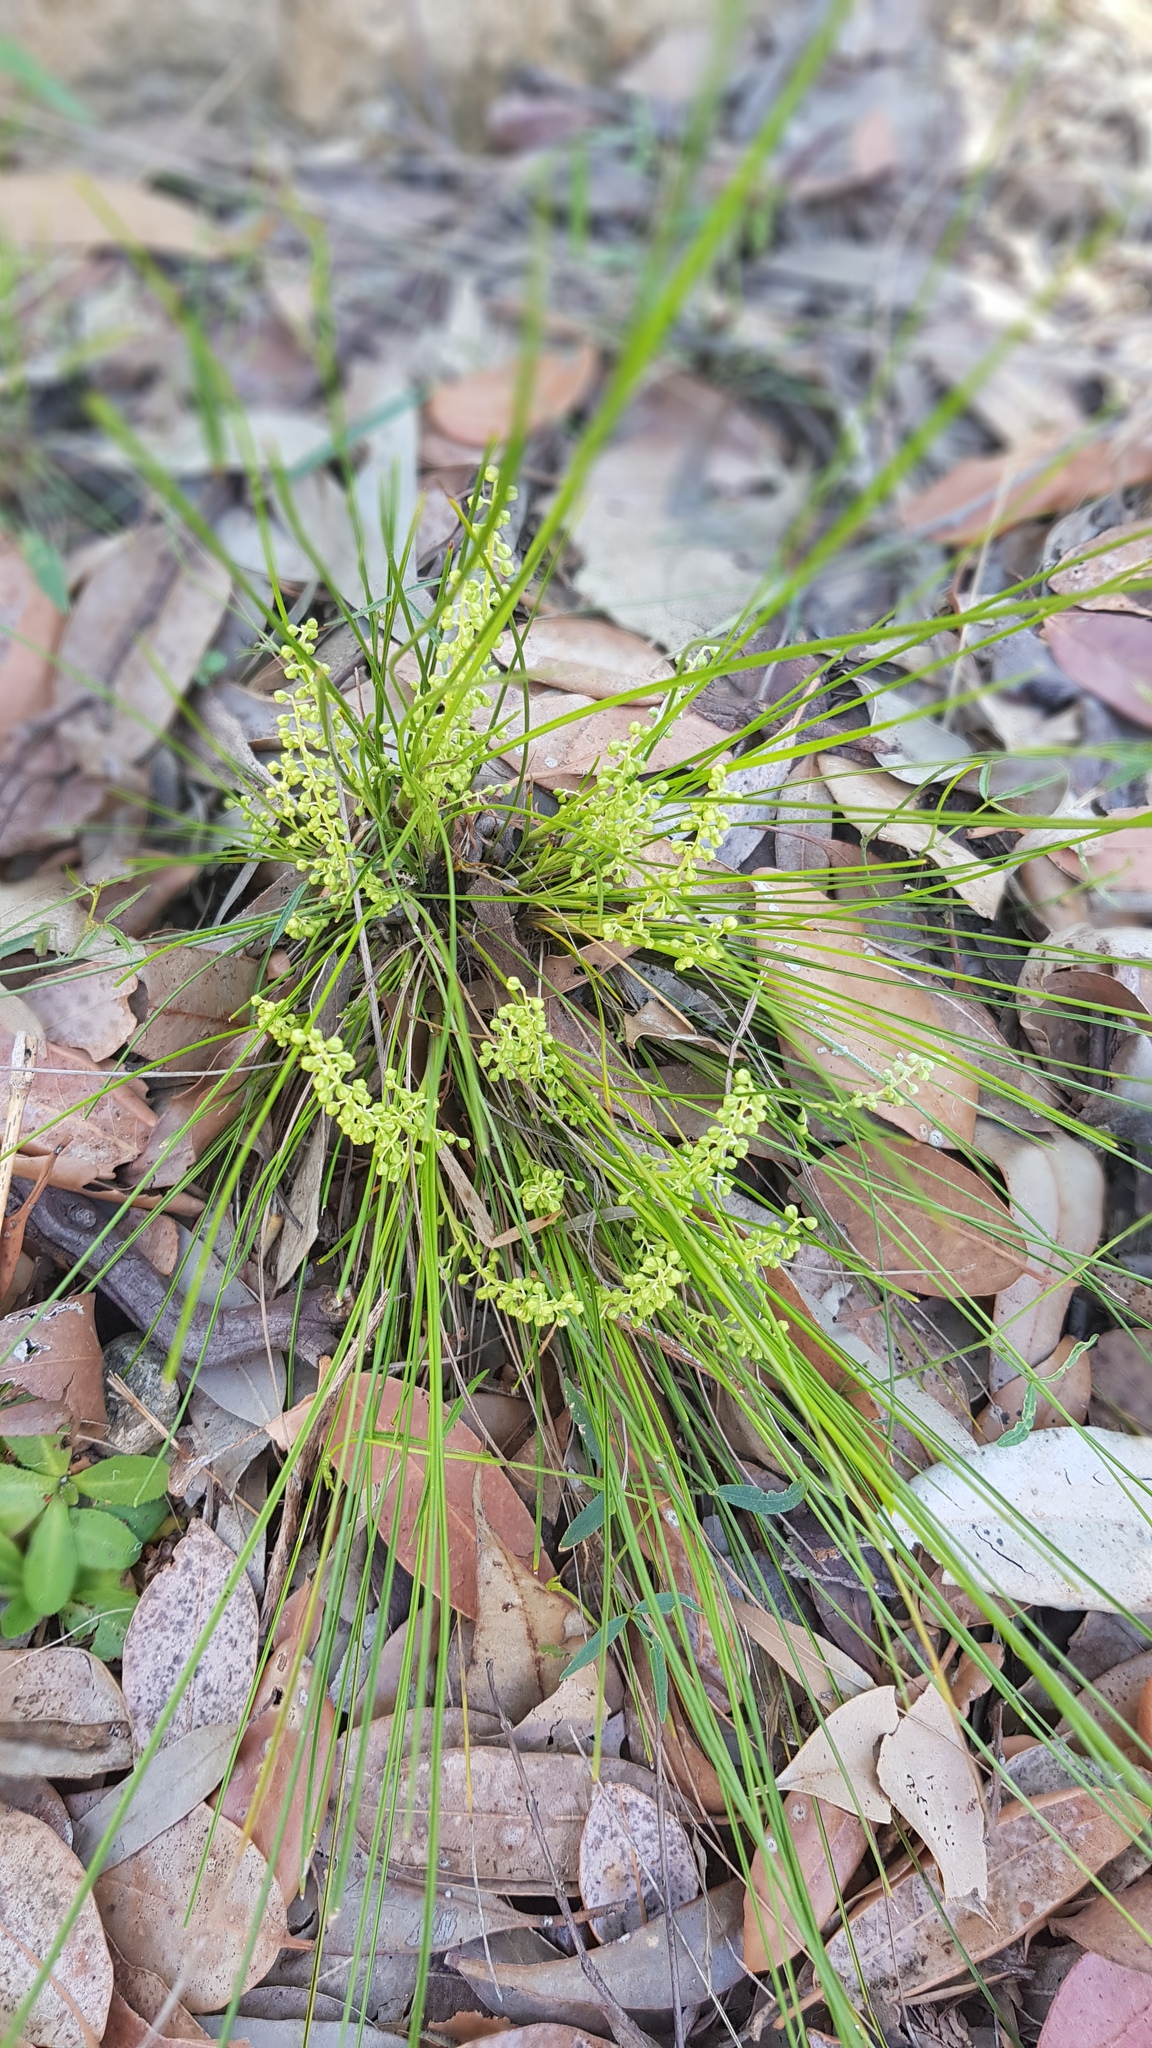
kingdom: Plantae
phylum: Tracheophyta
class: Liliopsida
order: Asparagales
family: Asparagaceae
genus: Lomandra
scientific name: Lomandra filiformis
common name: Wattle mat-rush
